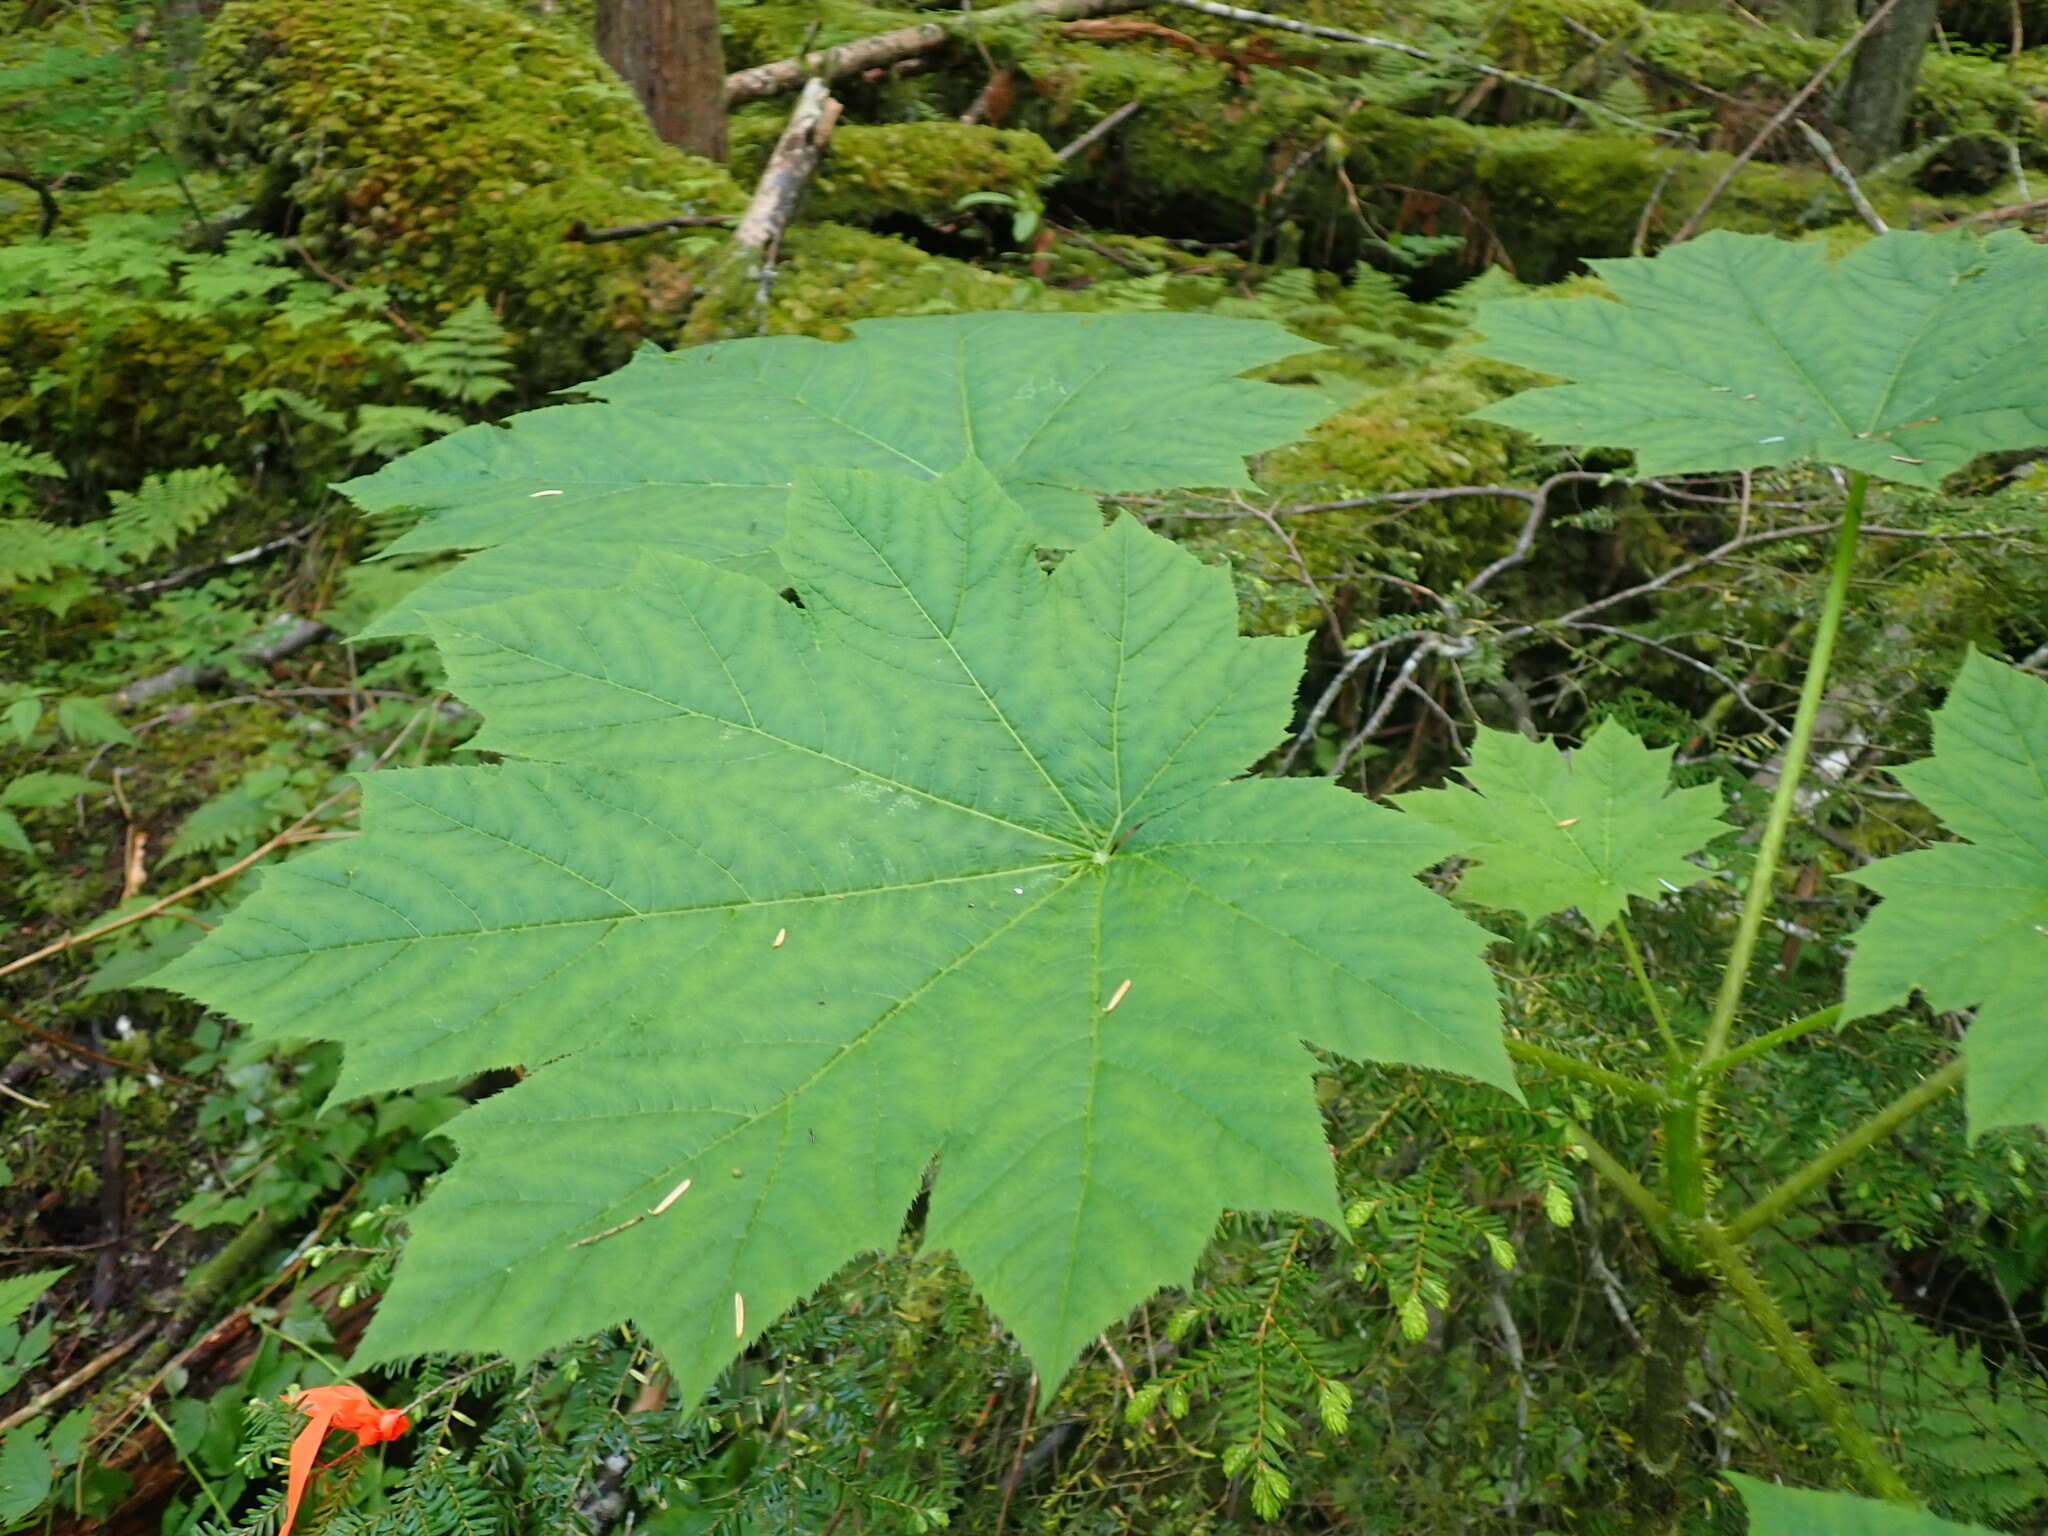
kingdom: Plantae
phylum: Tracheophyta
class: Magnoliopsida
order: Apiales
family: Araliaceae
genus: Oplopanax
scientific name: Oplopanax horridus
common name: Devil's walking-stick
